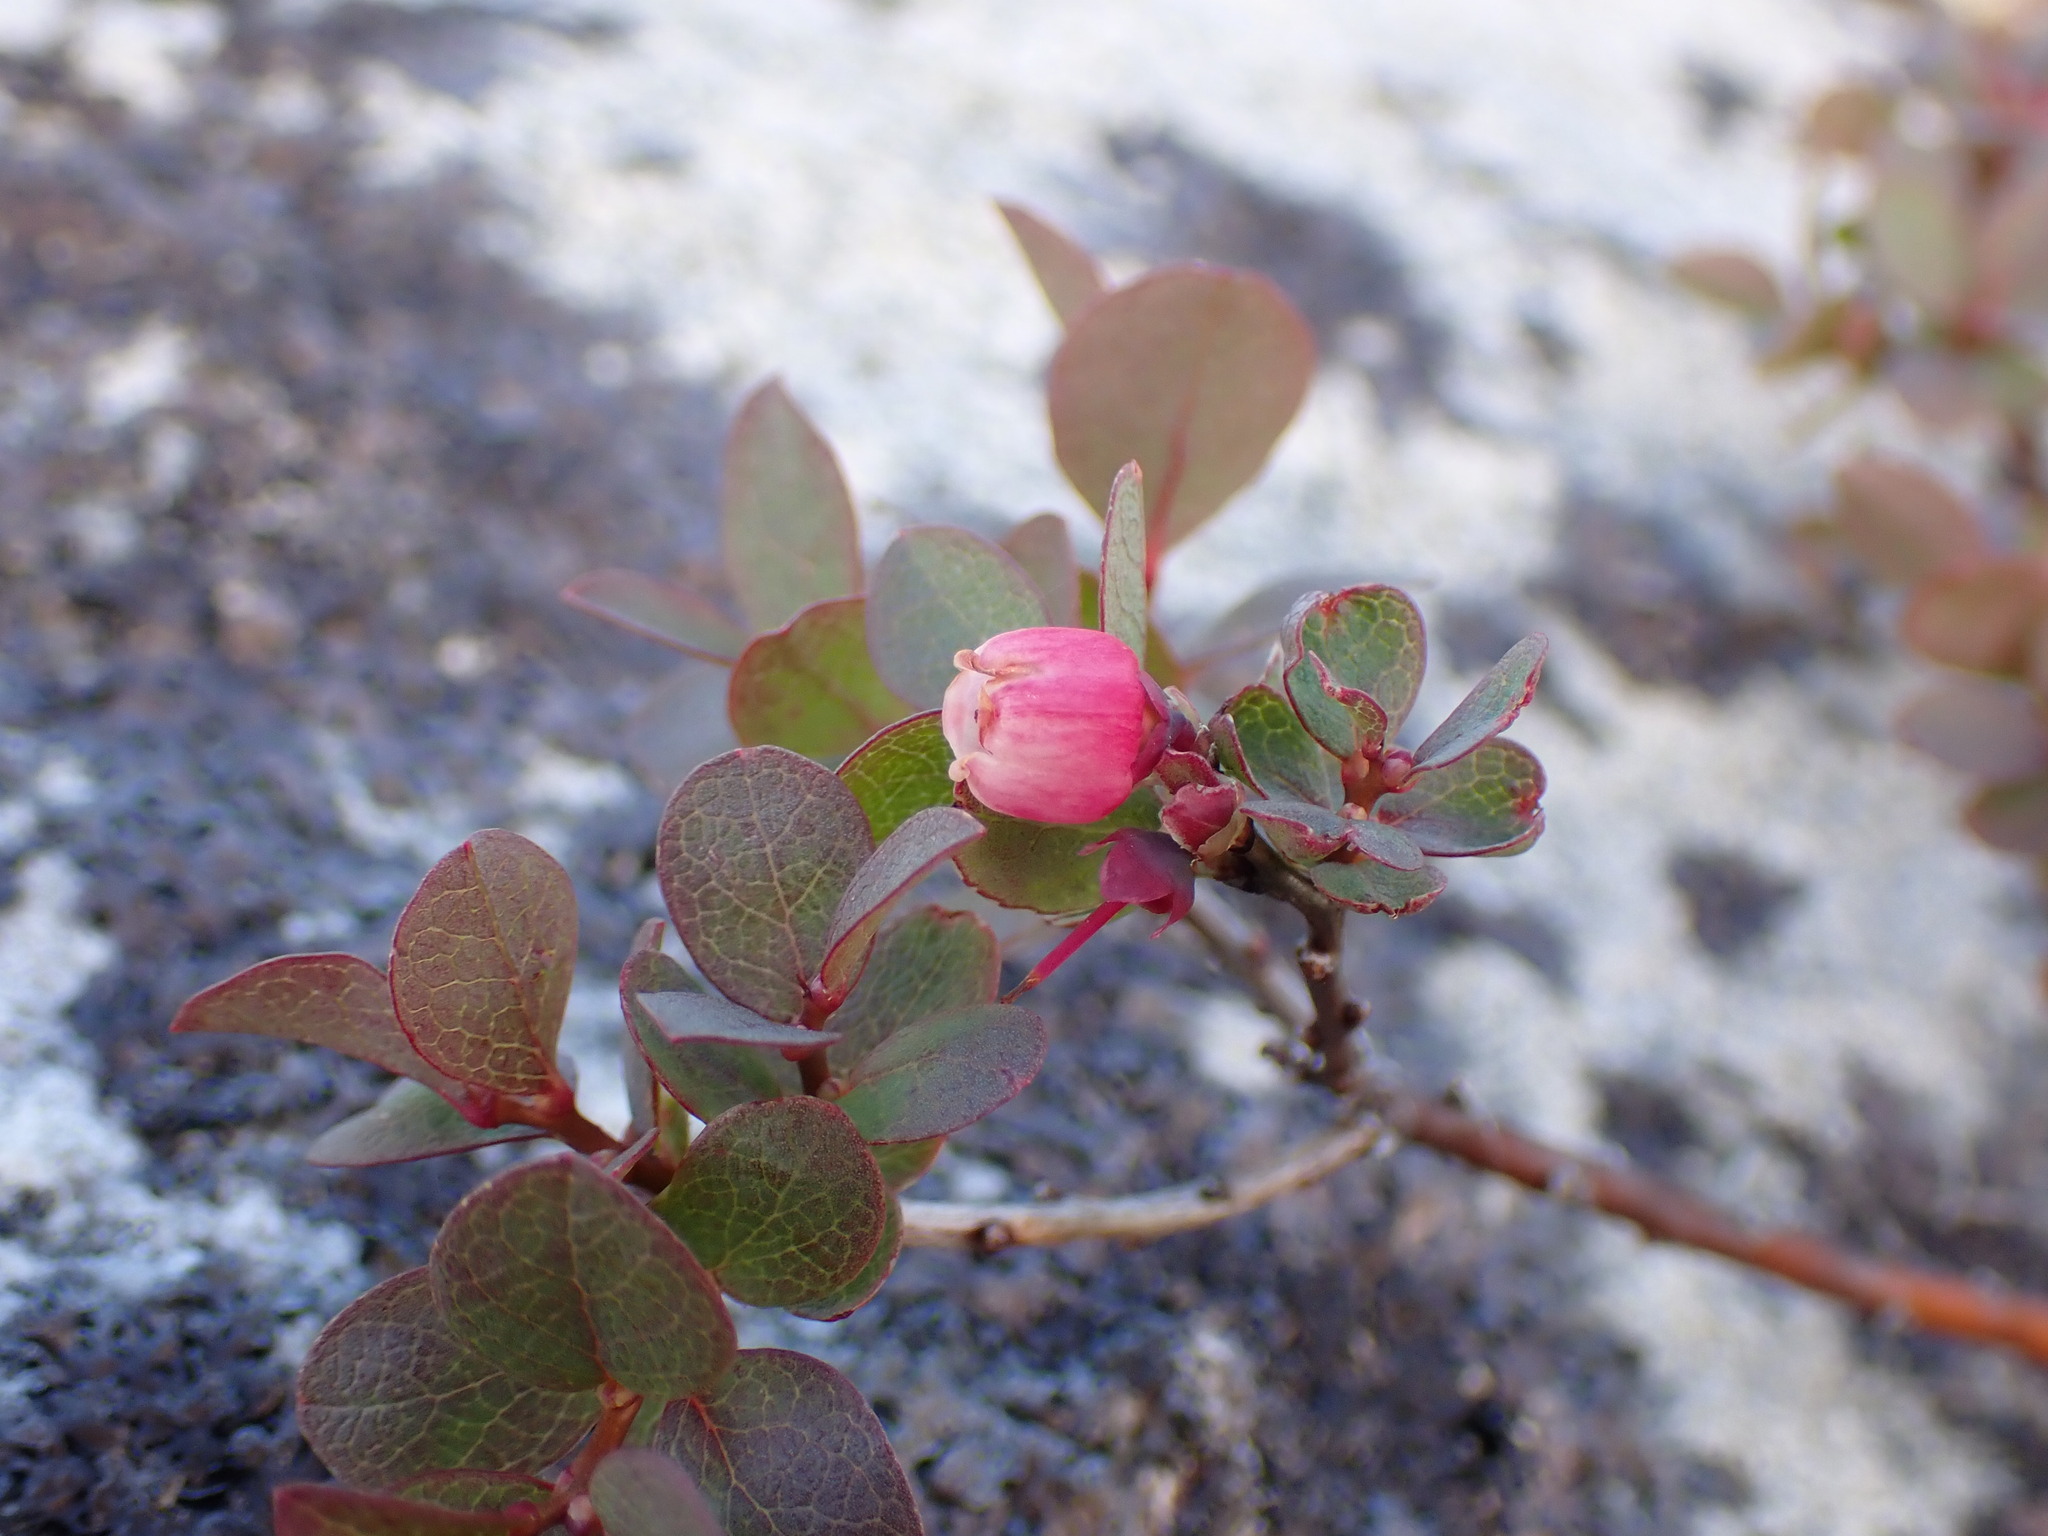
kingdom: Plantae
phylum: Tracheophyta
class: Magnoliopsida
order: Ericales
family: Ericaceae
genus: Vaccinium
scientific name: Vaccinium uliginosum
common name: Bog bilberry
